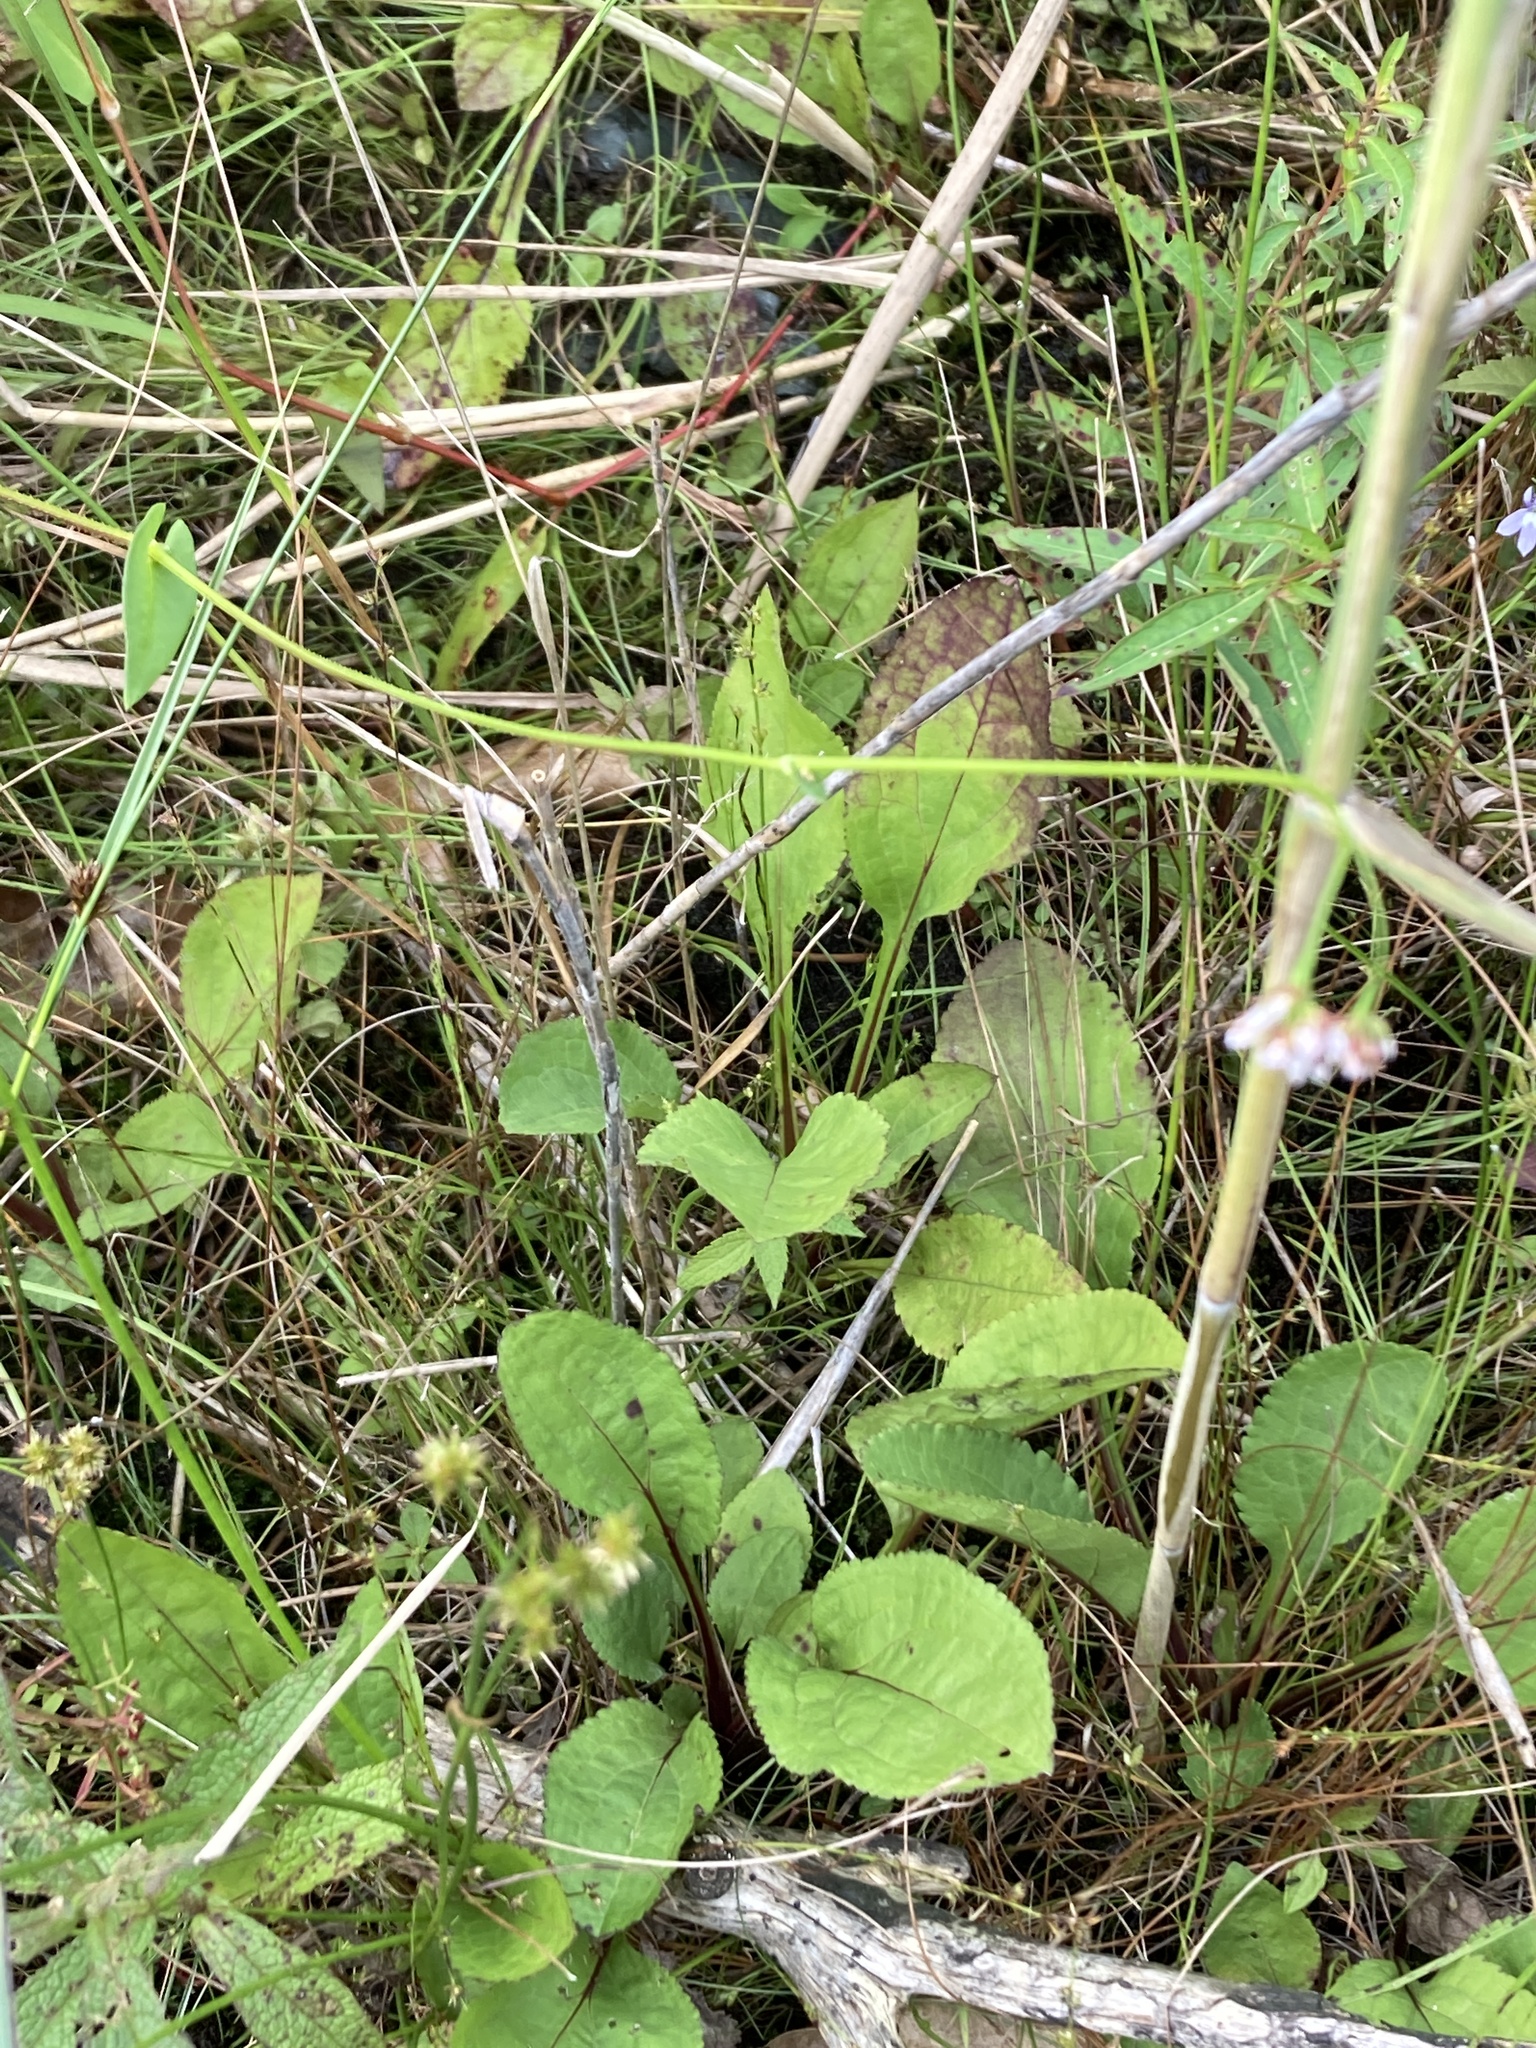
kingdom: Plantae
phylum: Tracheophyta
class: Magnoliopsida
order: Caryophyllales
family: Polygonaceae
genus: Persicaria
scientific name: Persicaria sagittata
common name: American tearthumb
